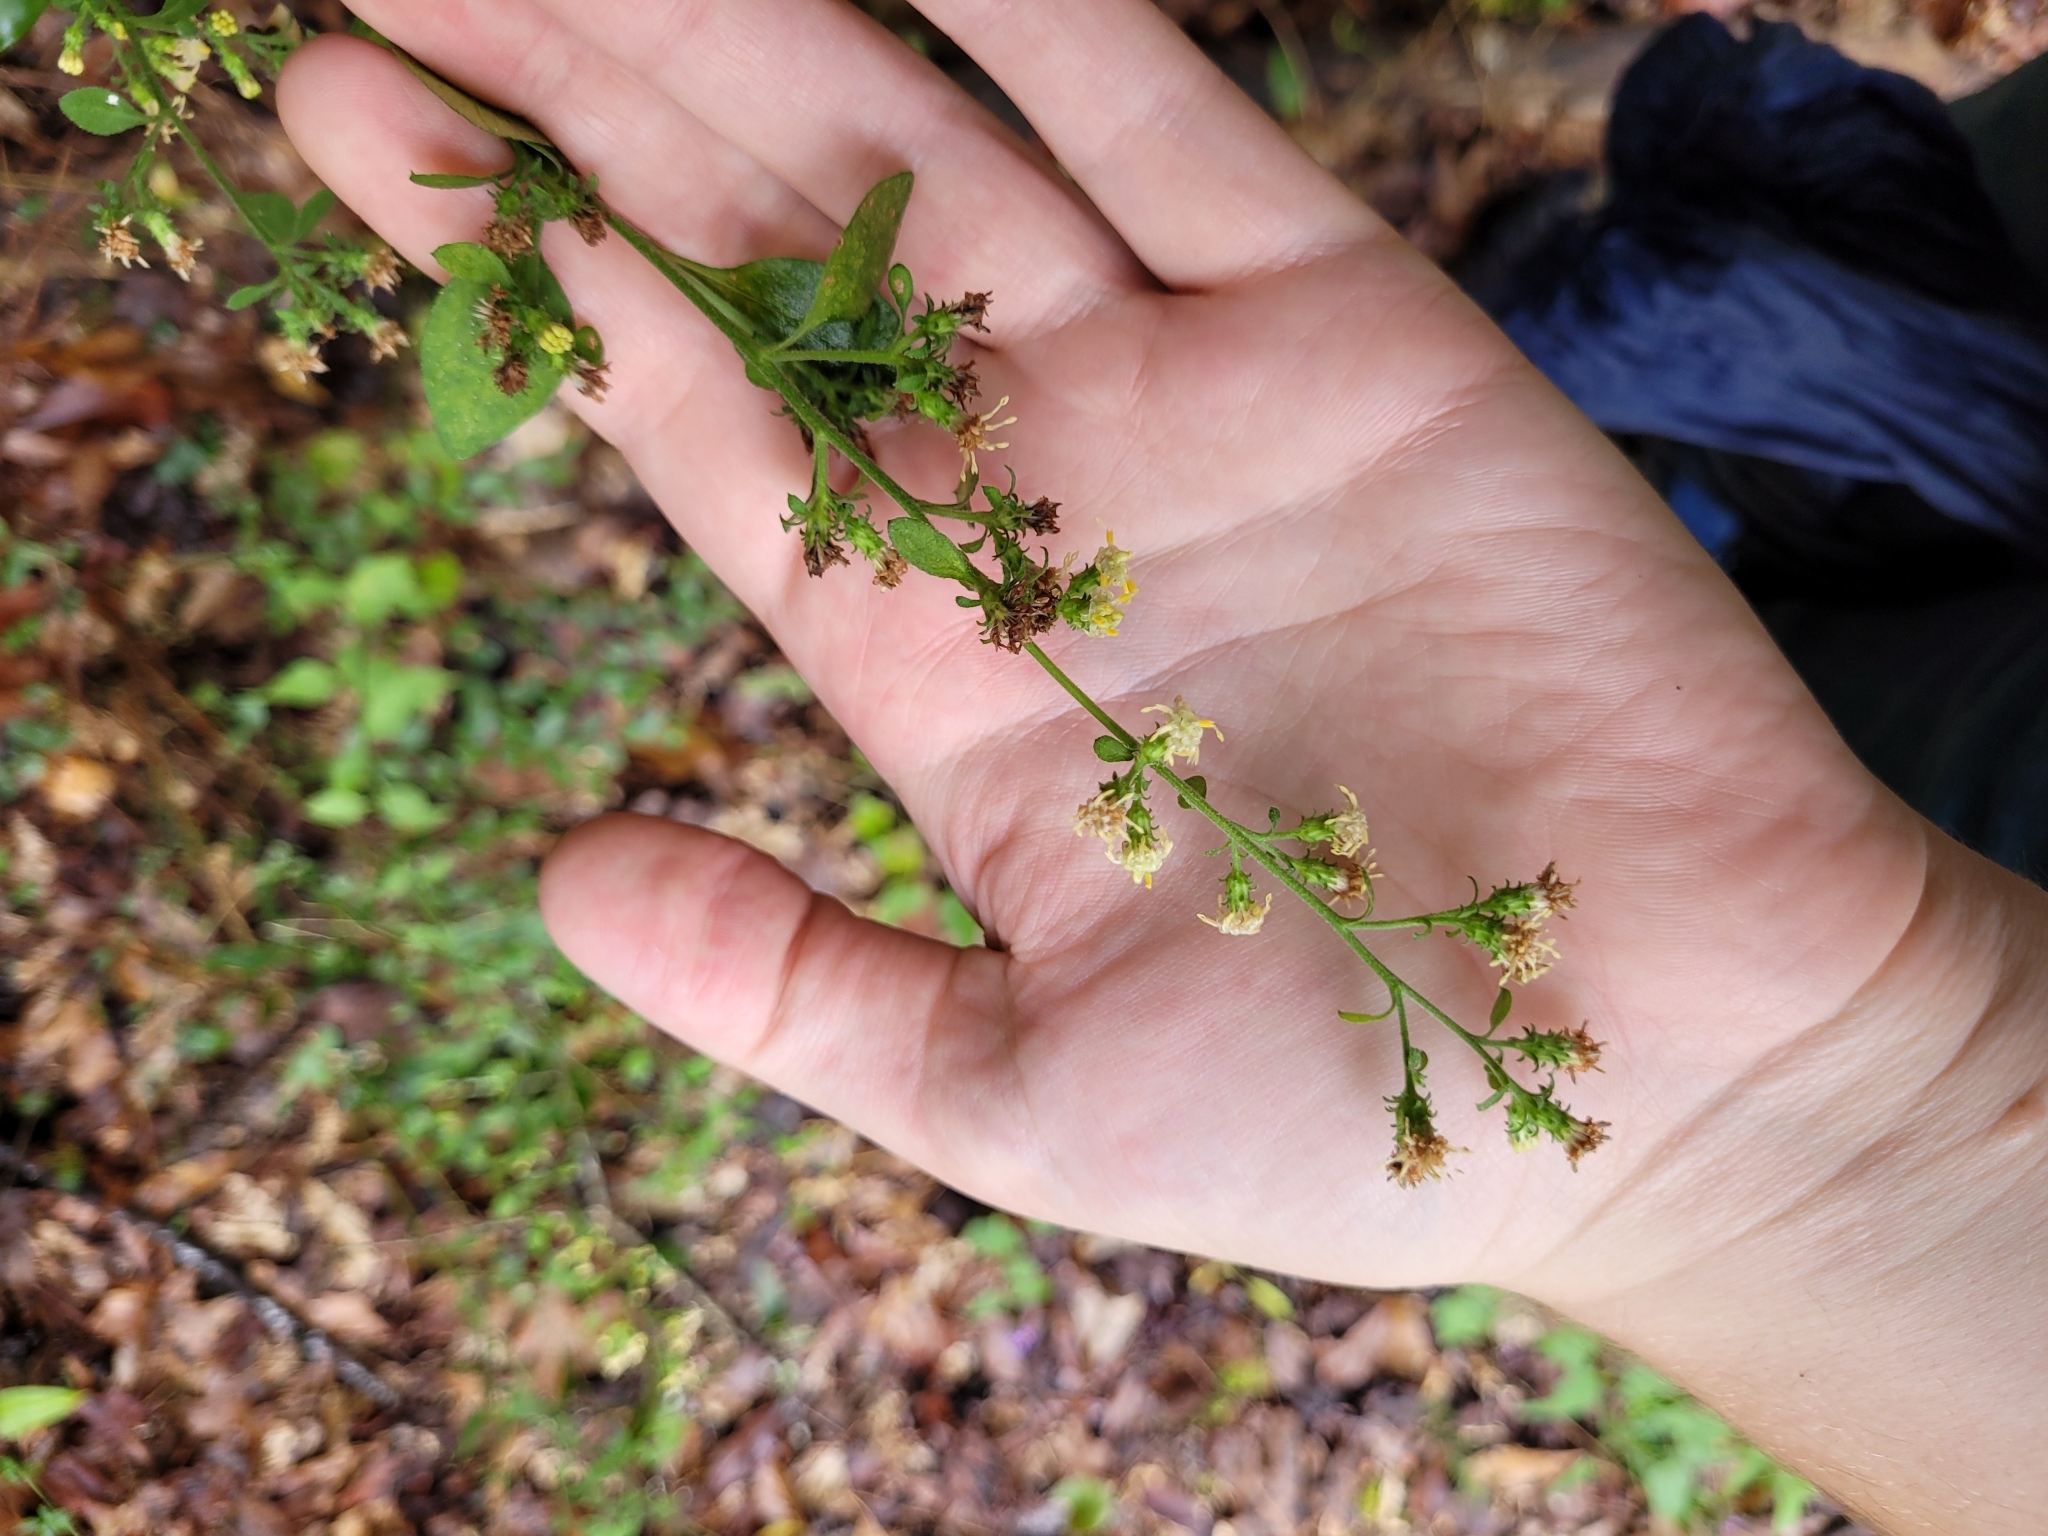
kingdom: Plantae
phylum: Tracheophyta
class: Magnoliopsida
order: Asterales
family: Asteraceae
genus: Solidago
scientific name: Solidago discoidea
